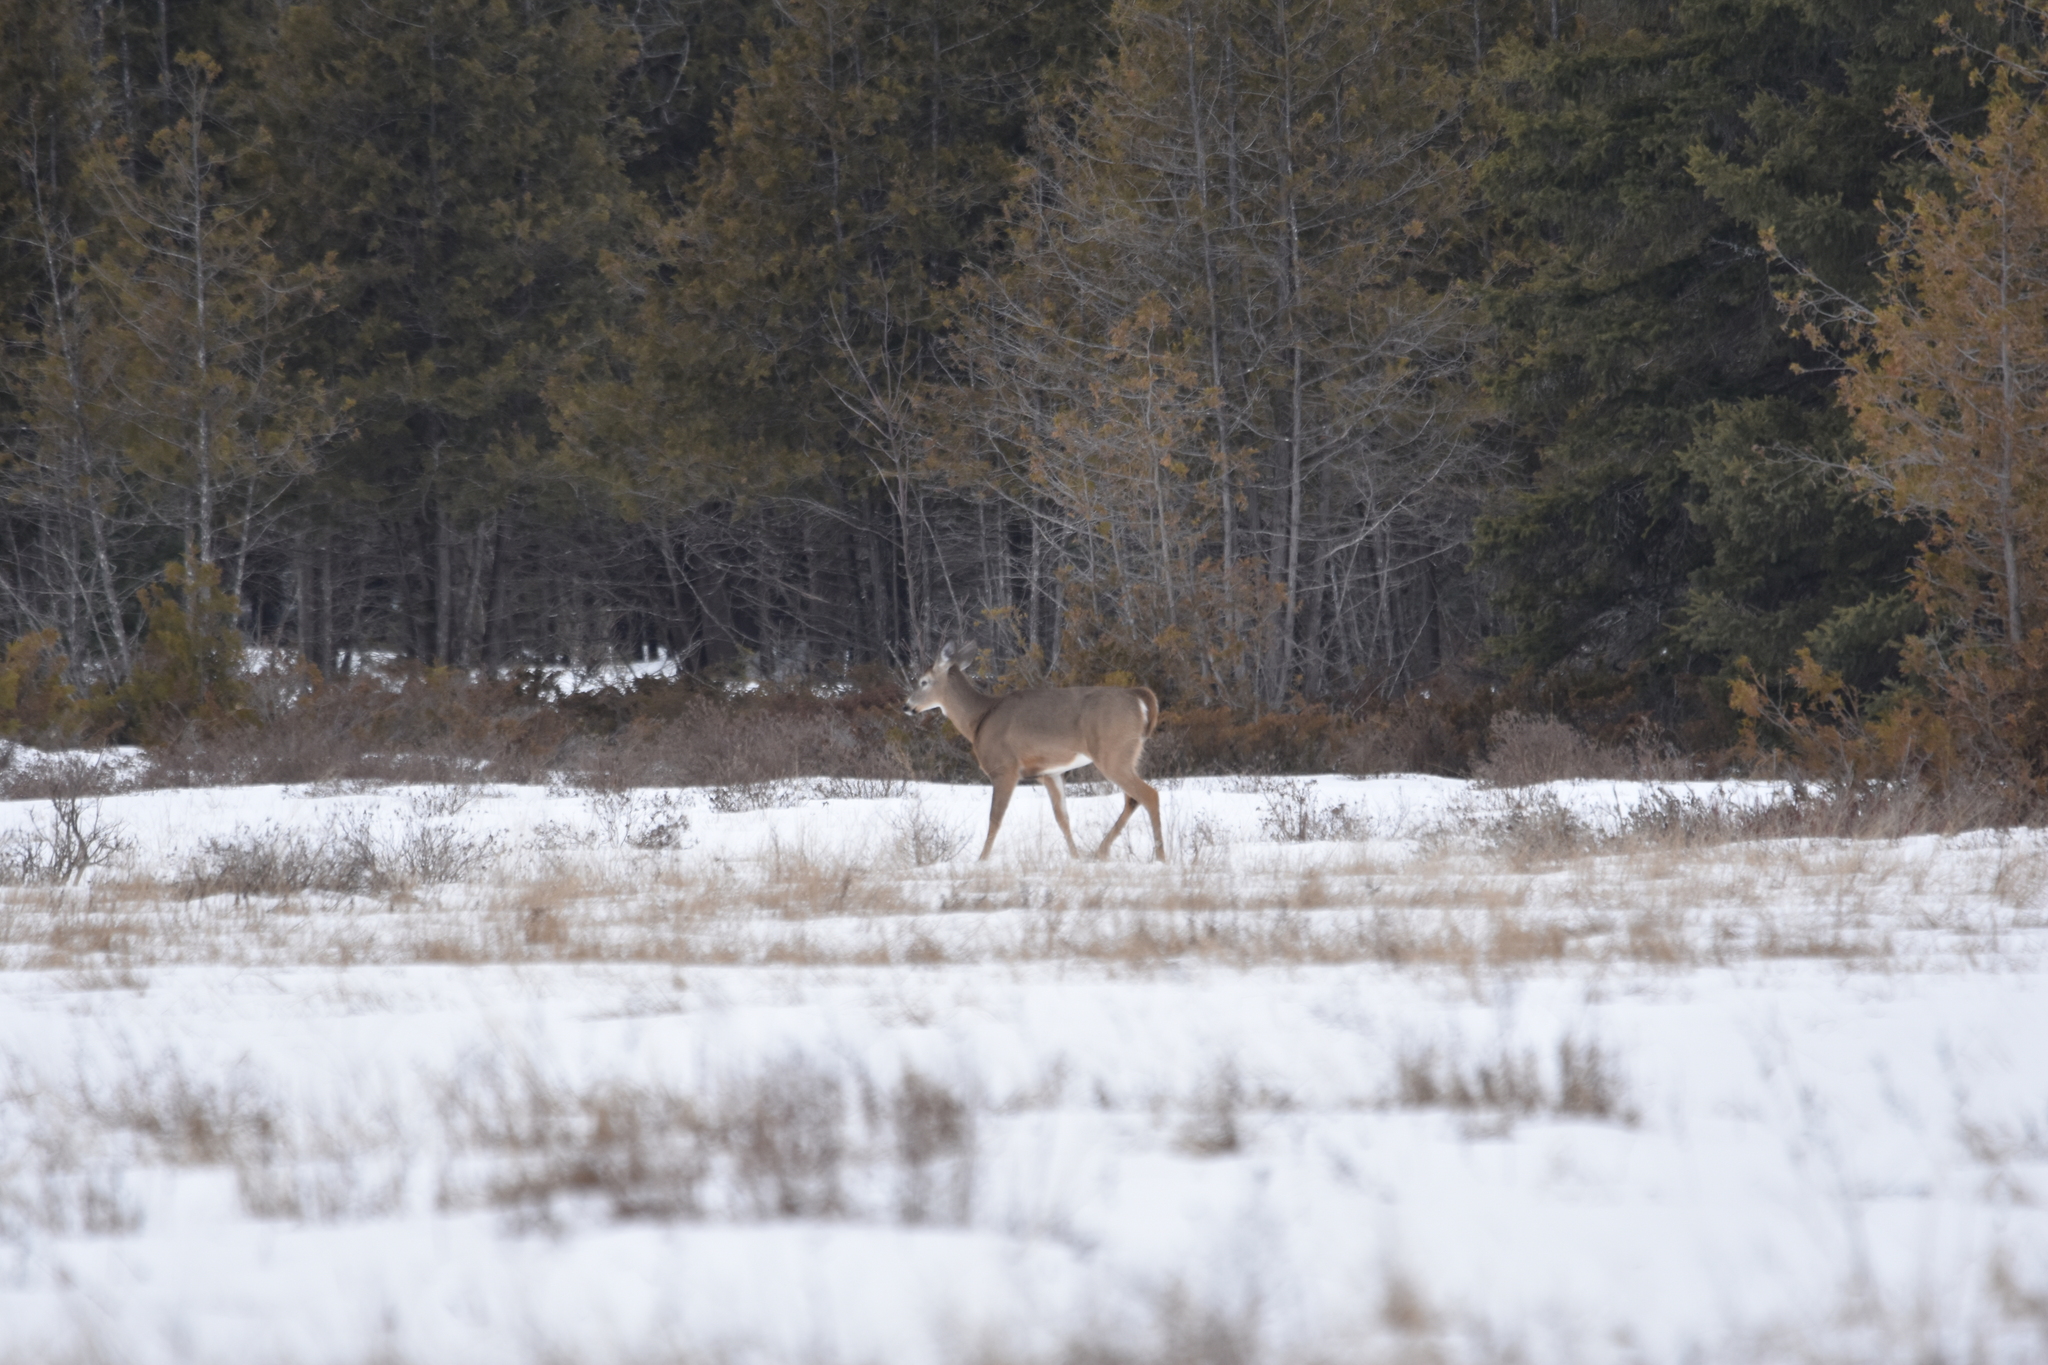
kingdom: Animalia
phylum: Chordata
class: Mammalia
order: Artiodactyla
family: Cervidae
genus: Odocoileus
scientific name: Odocoileus virginianus
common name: White-tailed deer
